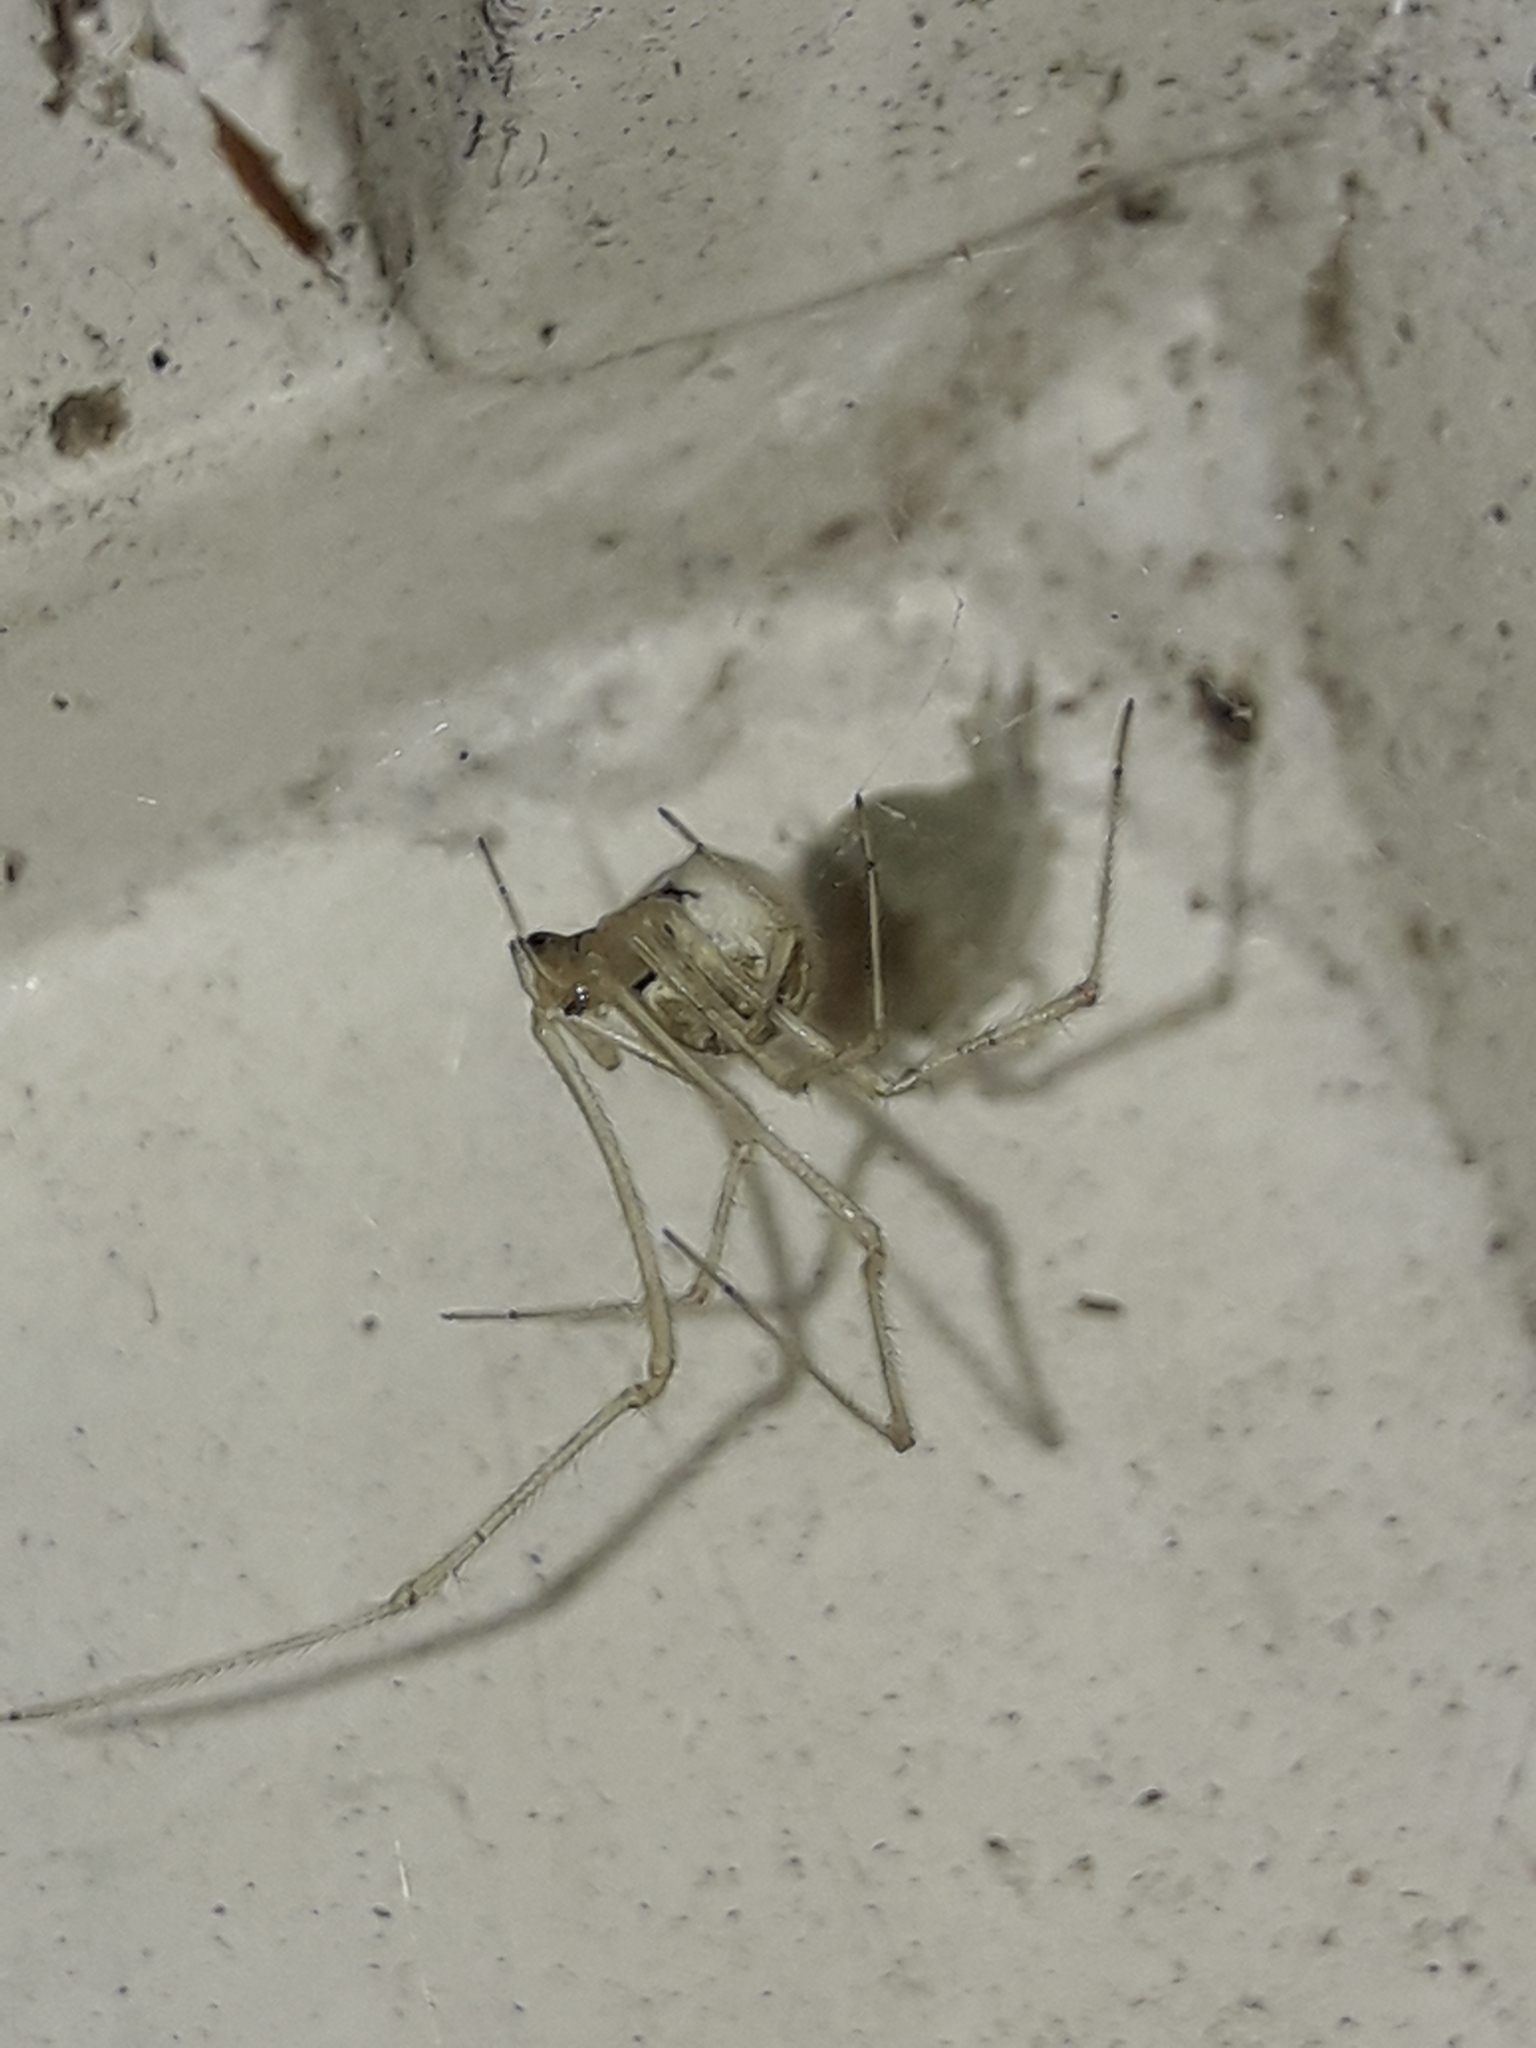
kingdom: Animalia
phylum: Arthropoda
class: Arachnida
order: Araneae
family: Theridiidae
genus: Cryptachaea
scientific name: Cryptachaea gigantipes
